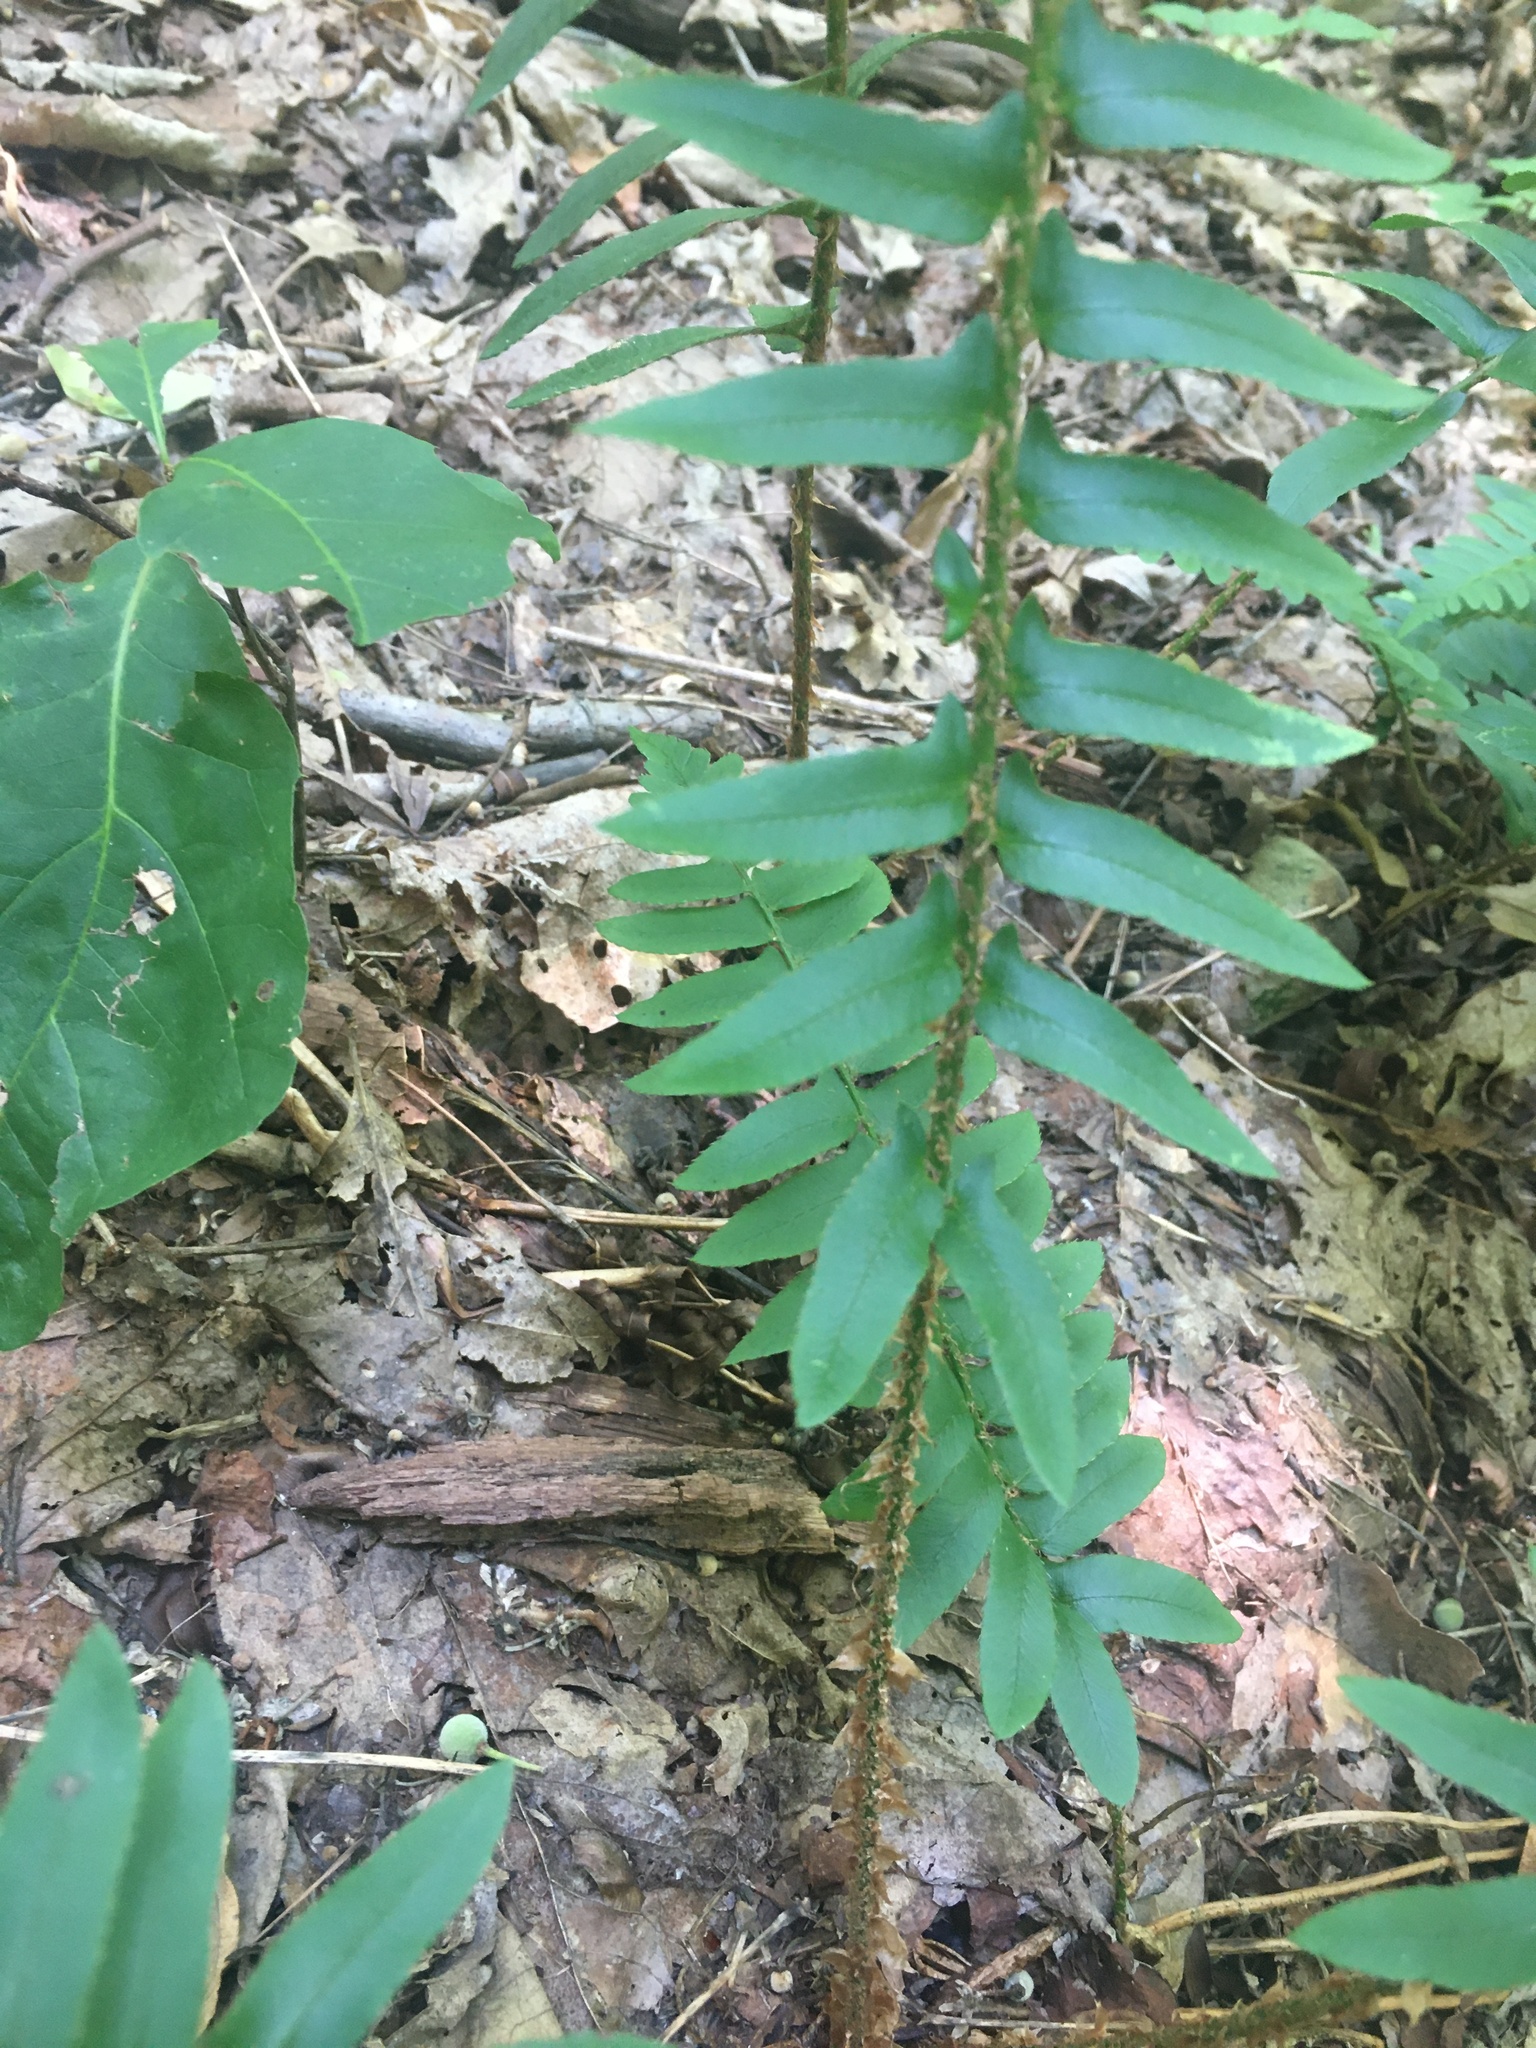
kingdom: Plantae
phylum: Tracheophyta
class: Polypodiopsida
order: Polypodiales
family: Dryopteridaceae
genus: Polystichum
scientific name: Polystichum acrostichoides
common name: Christmas fern
